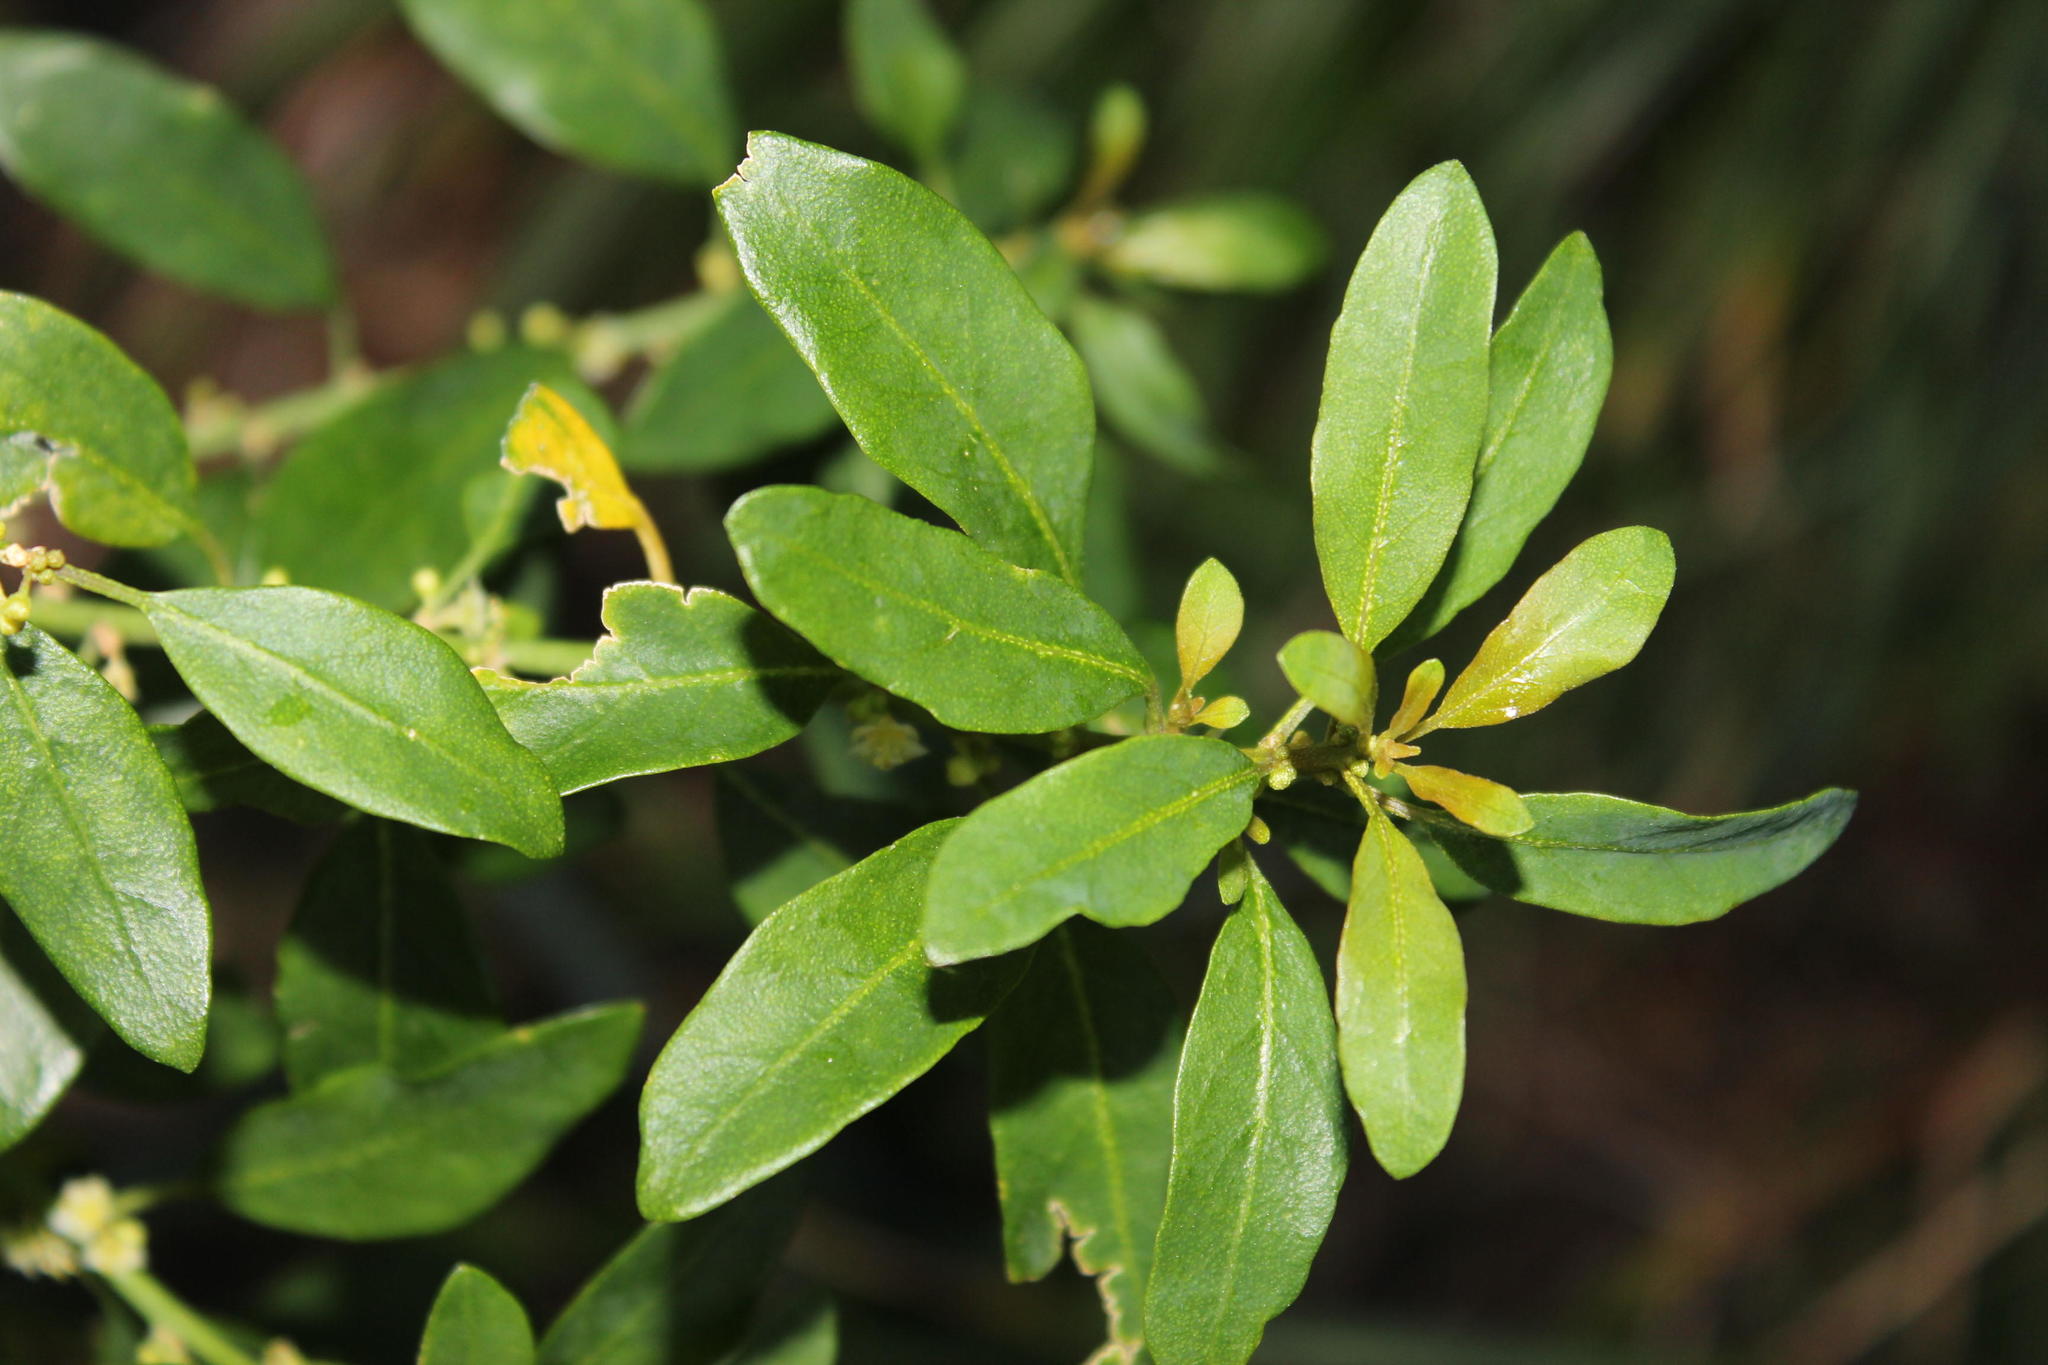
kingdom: Plantae
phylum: Tracheophyta
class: Magnoliopsida
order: Malpighiales
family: Peraceae
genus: Clutia
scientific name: Clutia pulchella
